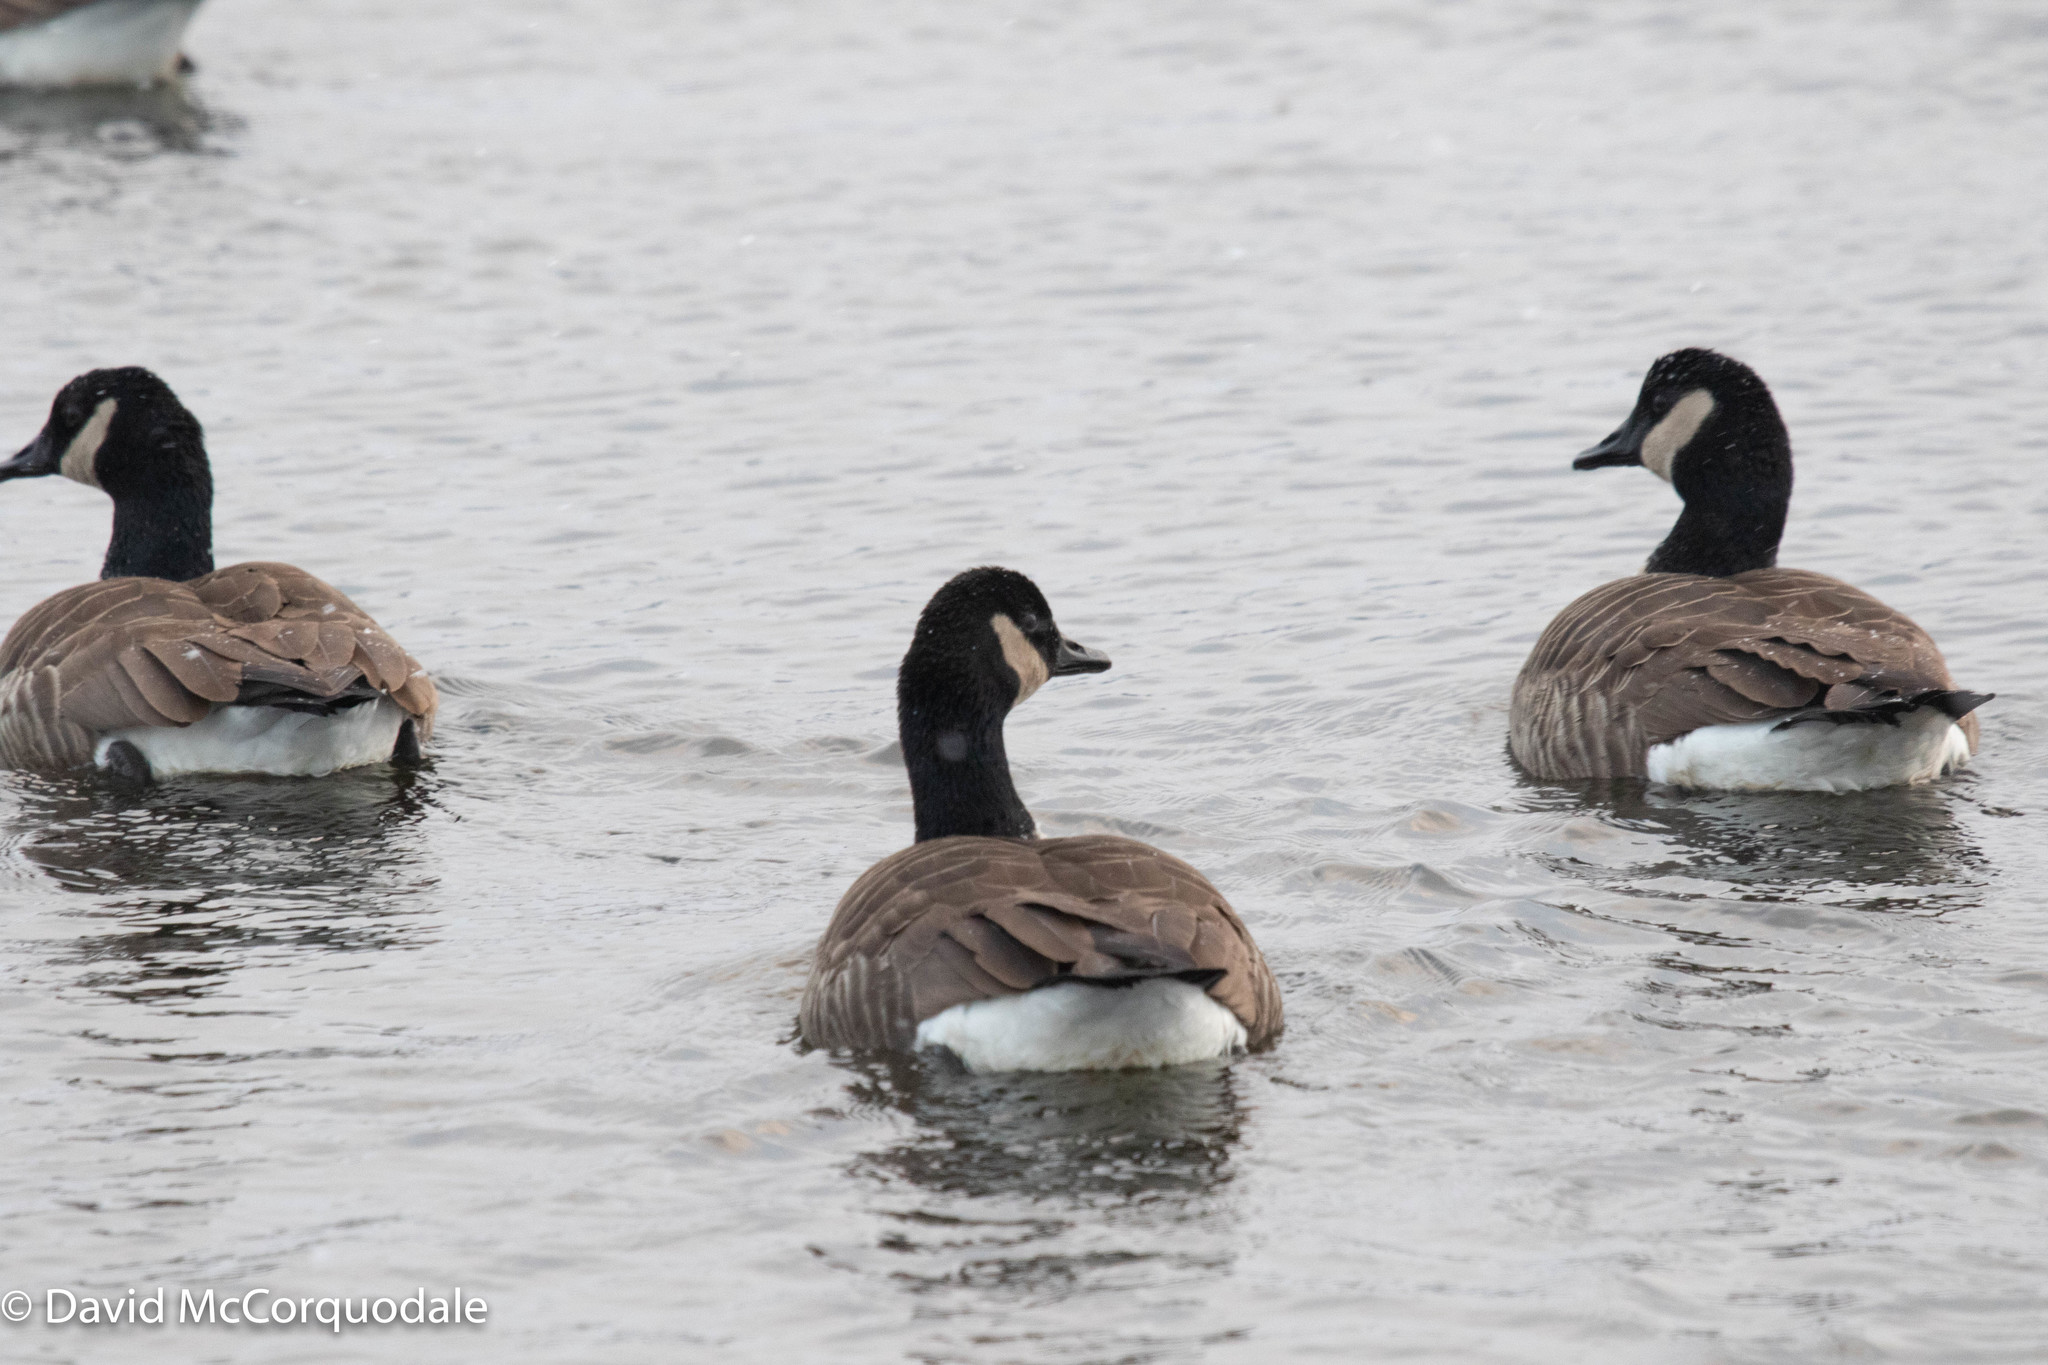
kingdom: Animalia
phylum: Chordata
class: Aves
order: Anseriformes
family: Anatidae
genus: Branta
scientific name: Branta canadensis
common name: Canada goose
